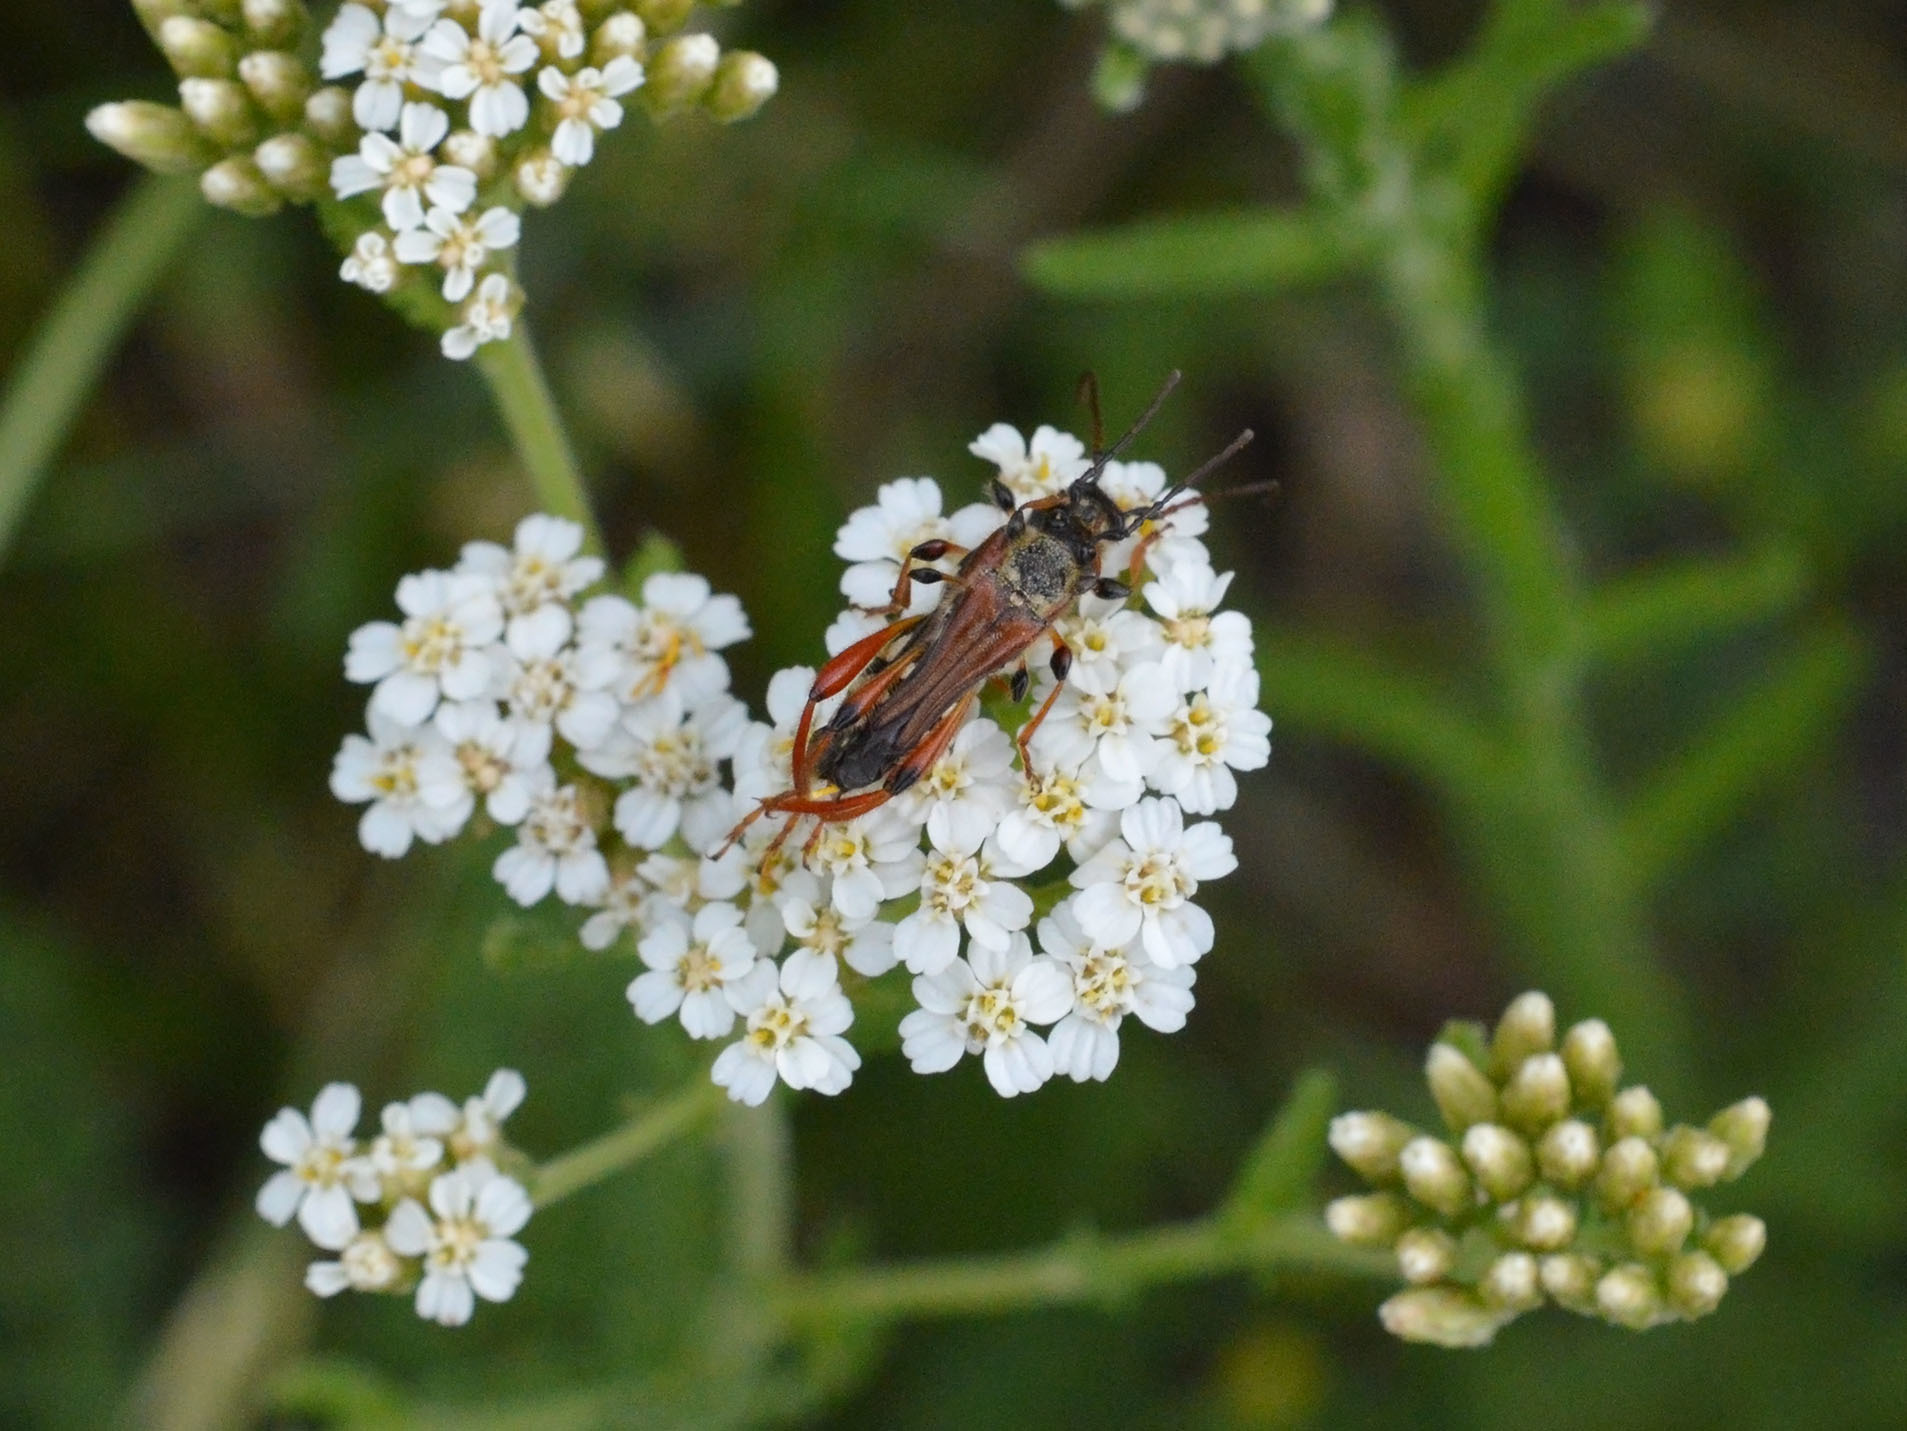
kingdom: Animalia
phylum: Arthropoda
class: Insecta
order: Coleoptera
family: Cerambycidae
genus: Stenopterus
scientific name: Stenopterus rufus
